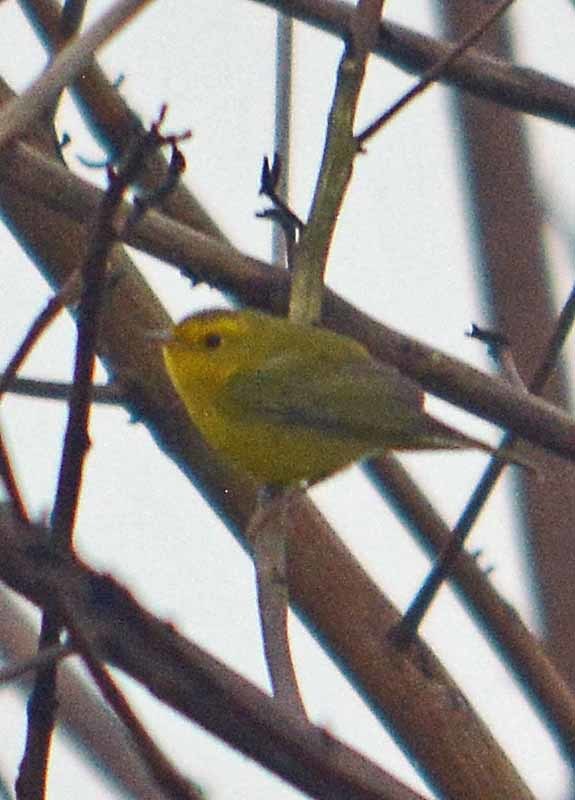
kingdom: Animalia
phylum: Chordata
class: Aves
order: Passeriformes
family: Parulidae
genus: Cardellina
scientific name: Cardellina pusilla
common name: Wilson's warbler
